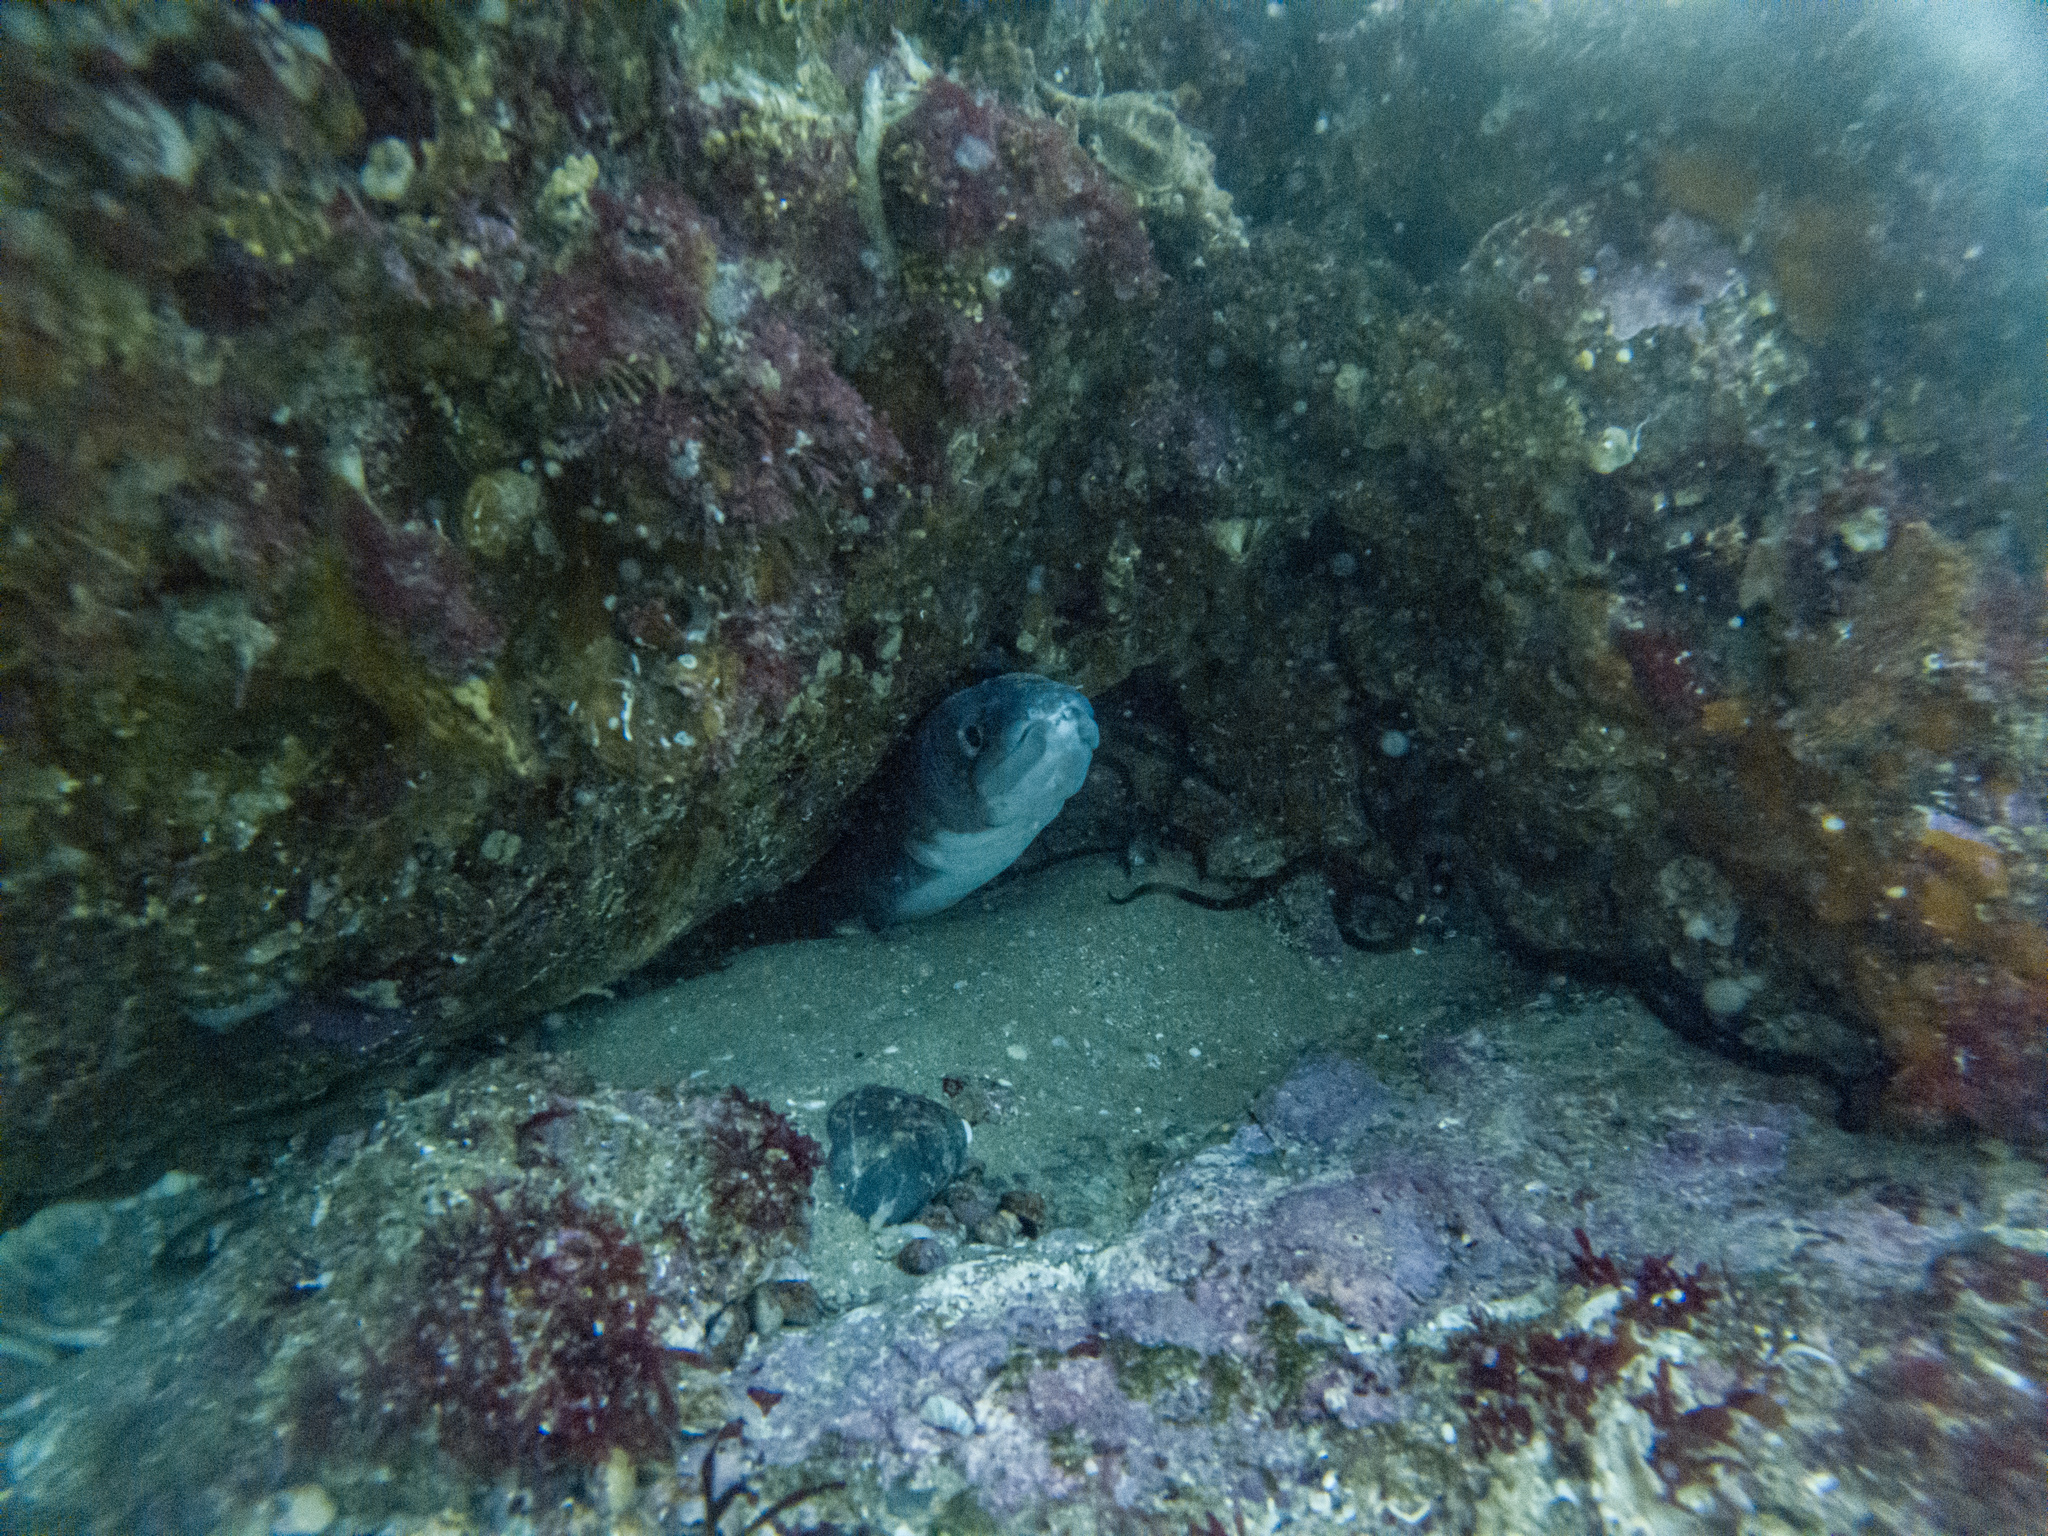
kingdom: Animalia
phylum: Mollusca
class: Gastropoda
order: Littorinimorpha
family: Cymatiidae
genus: Cabestana
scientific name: Cabestana spengleri
